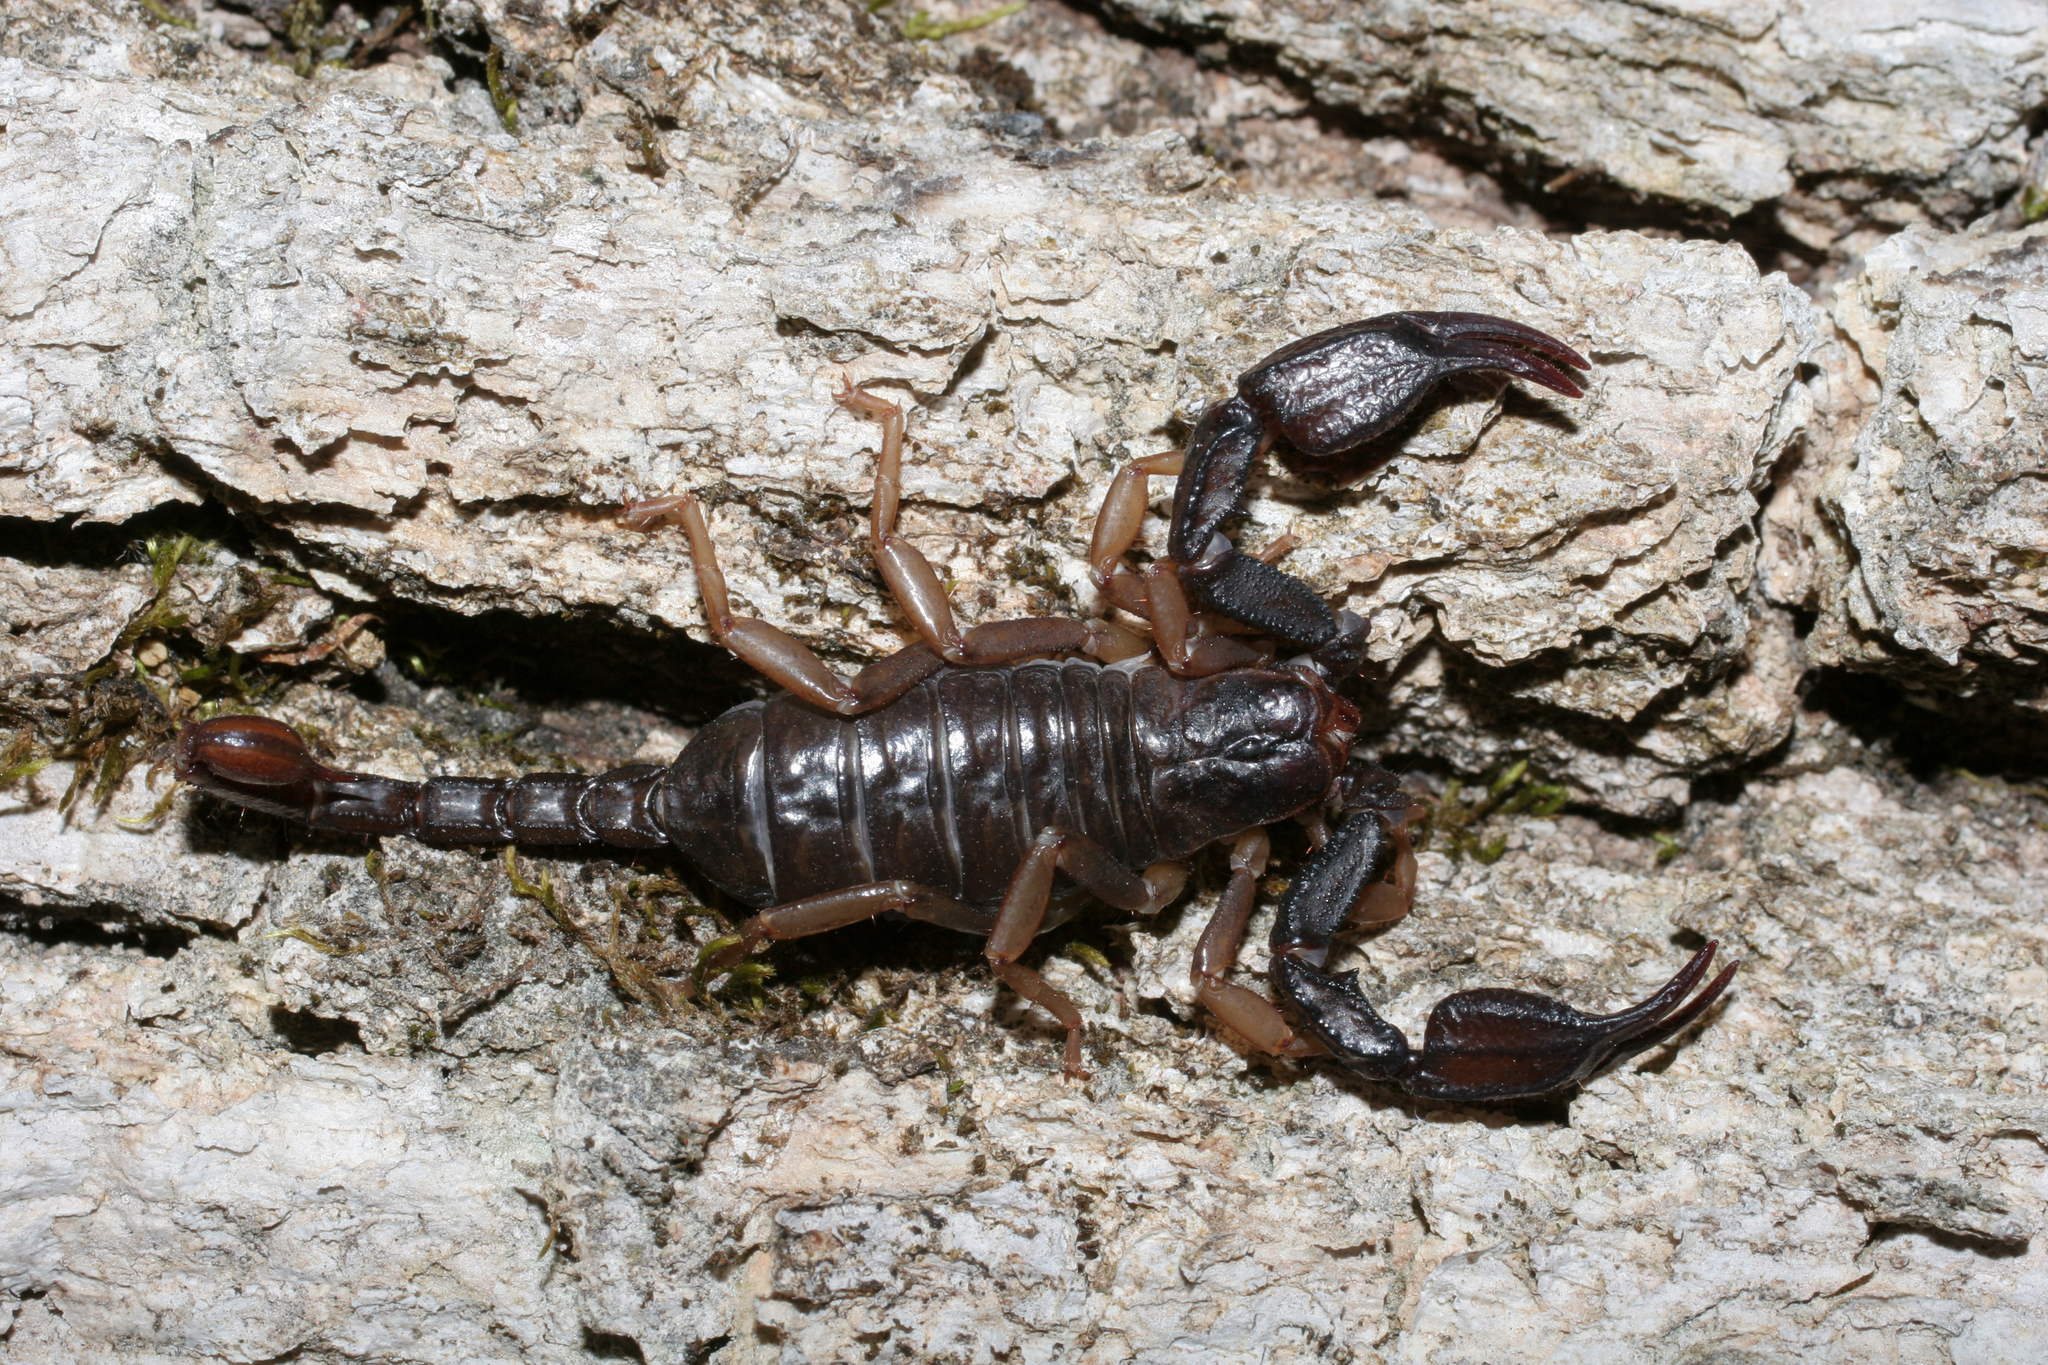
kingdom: Animalia
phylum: Arthropoda
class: Arachnida
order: Scorpiones
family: Chactidae
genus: Uroctonus
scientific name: Uroctonus mordax
